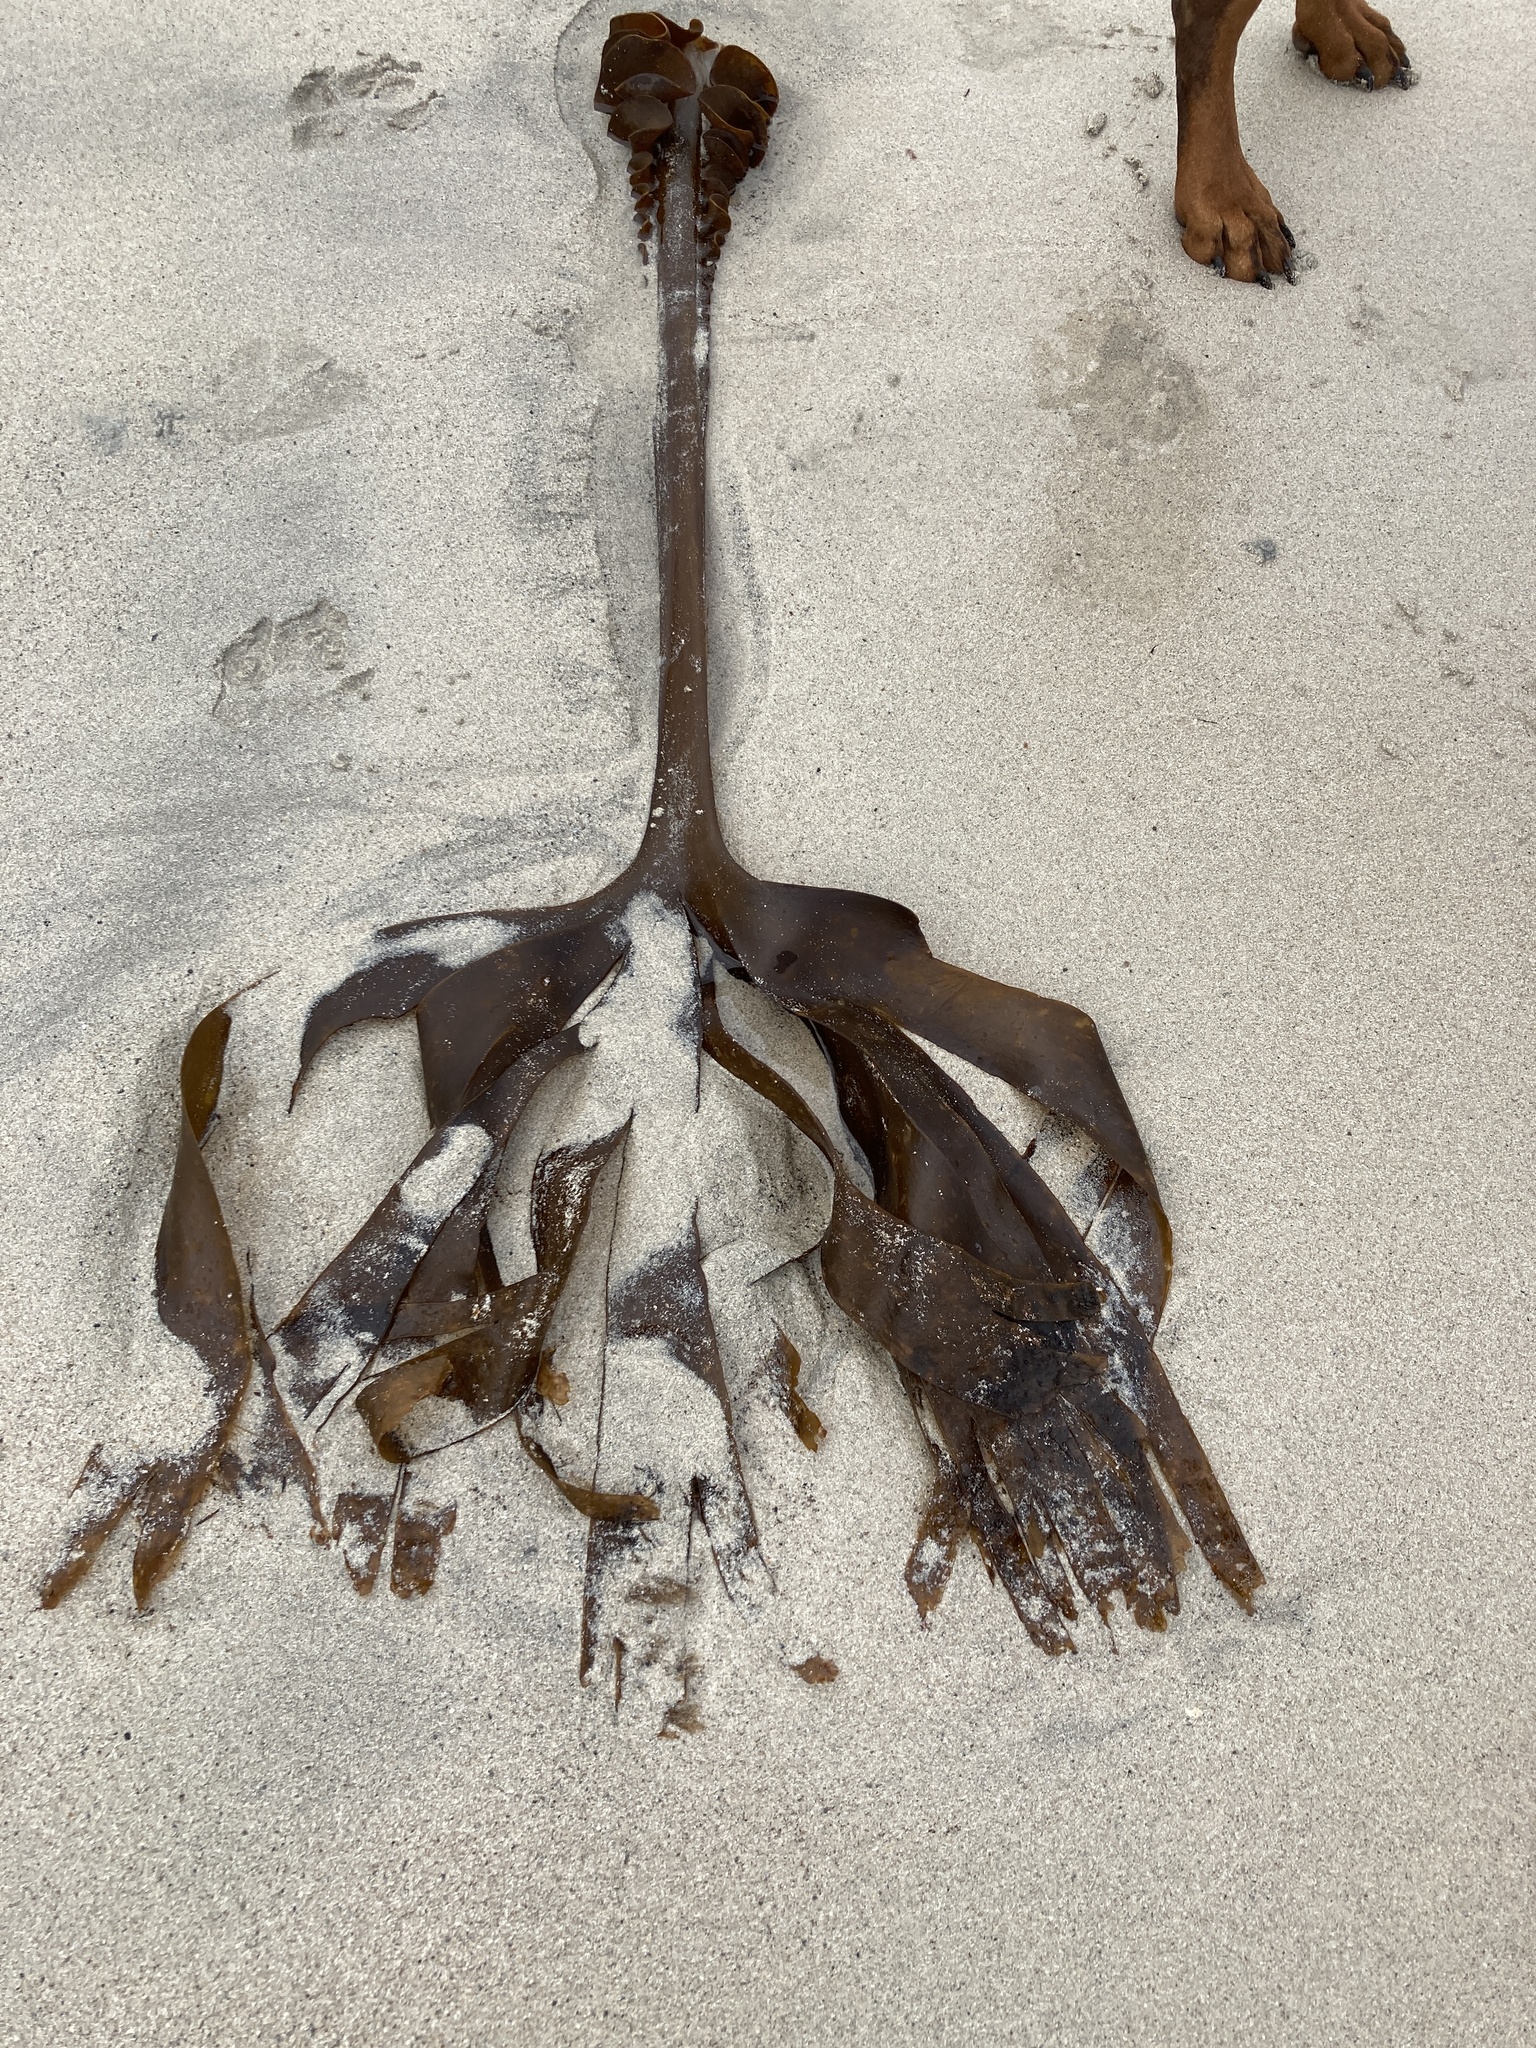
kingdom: Chromista
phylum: Ochrophyta
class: Phaeophyceae
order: Tilopteridales
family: Phyllariaceae
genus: Saccorhiza
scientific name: Saccorhiza polyschides
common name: Furbelows
